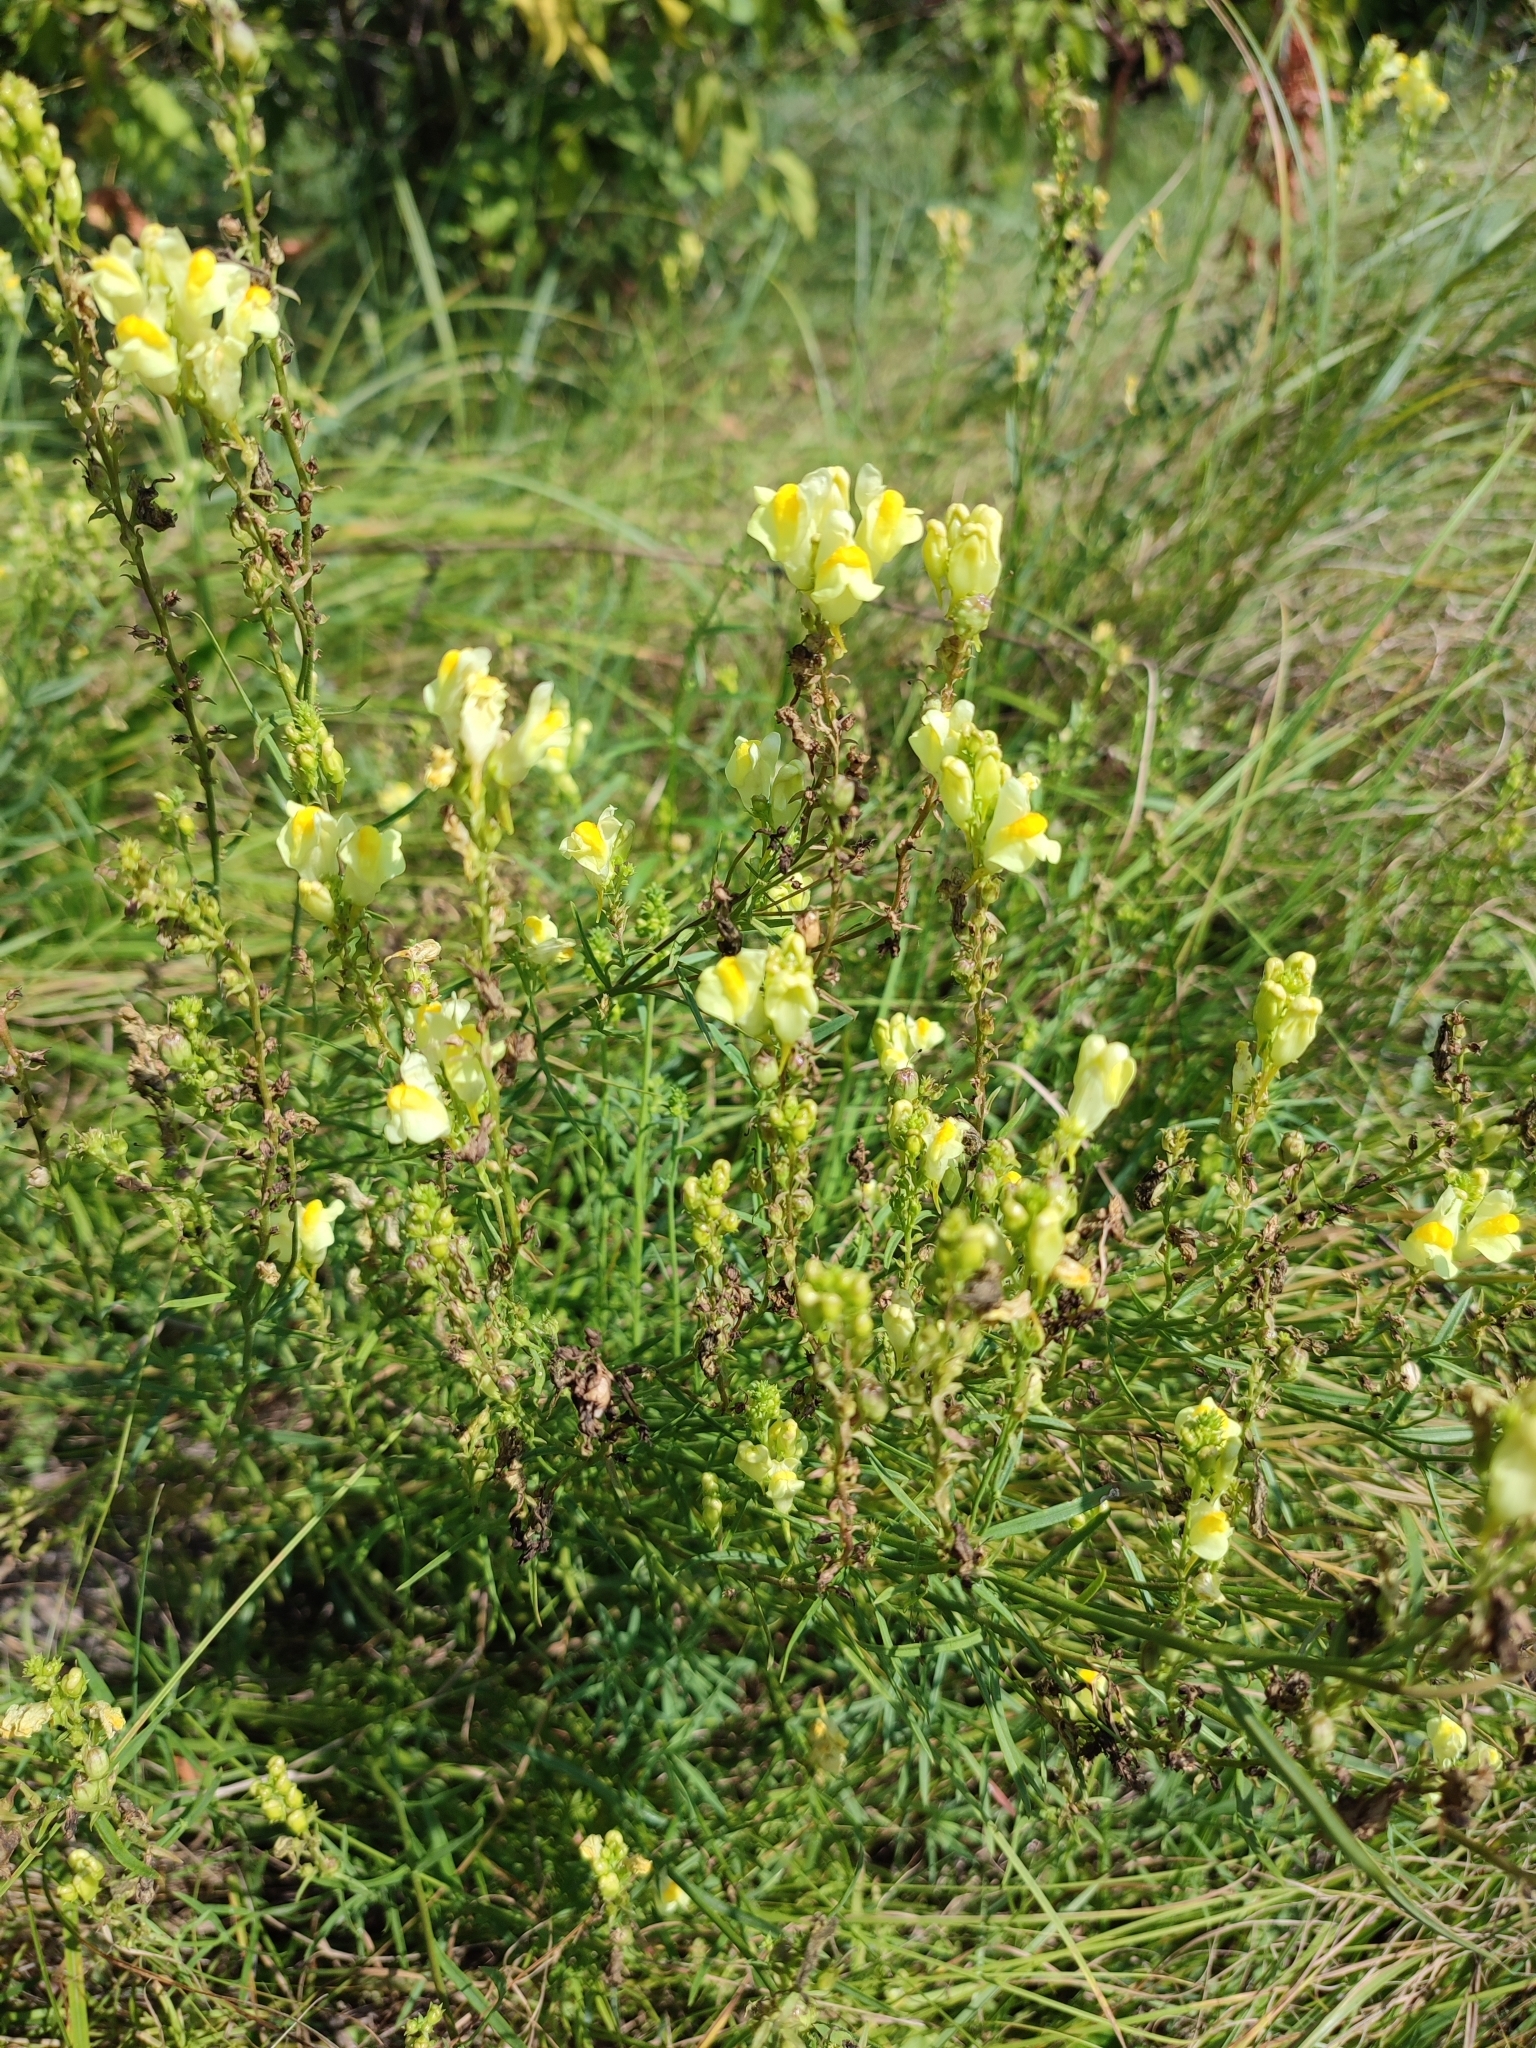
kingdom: Plantae
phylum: Tracheophyta
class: Magnoliopsida
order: Lamiales
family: Plantaginaceae
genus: Linaria
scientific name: Linaria vulgaris
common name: Butter and eggs
